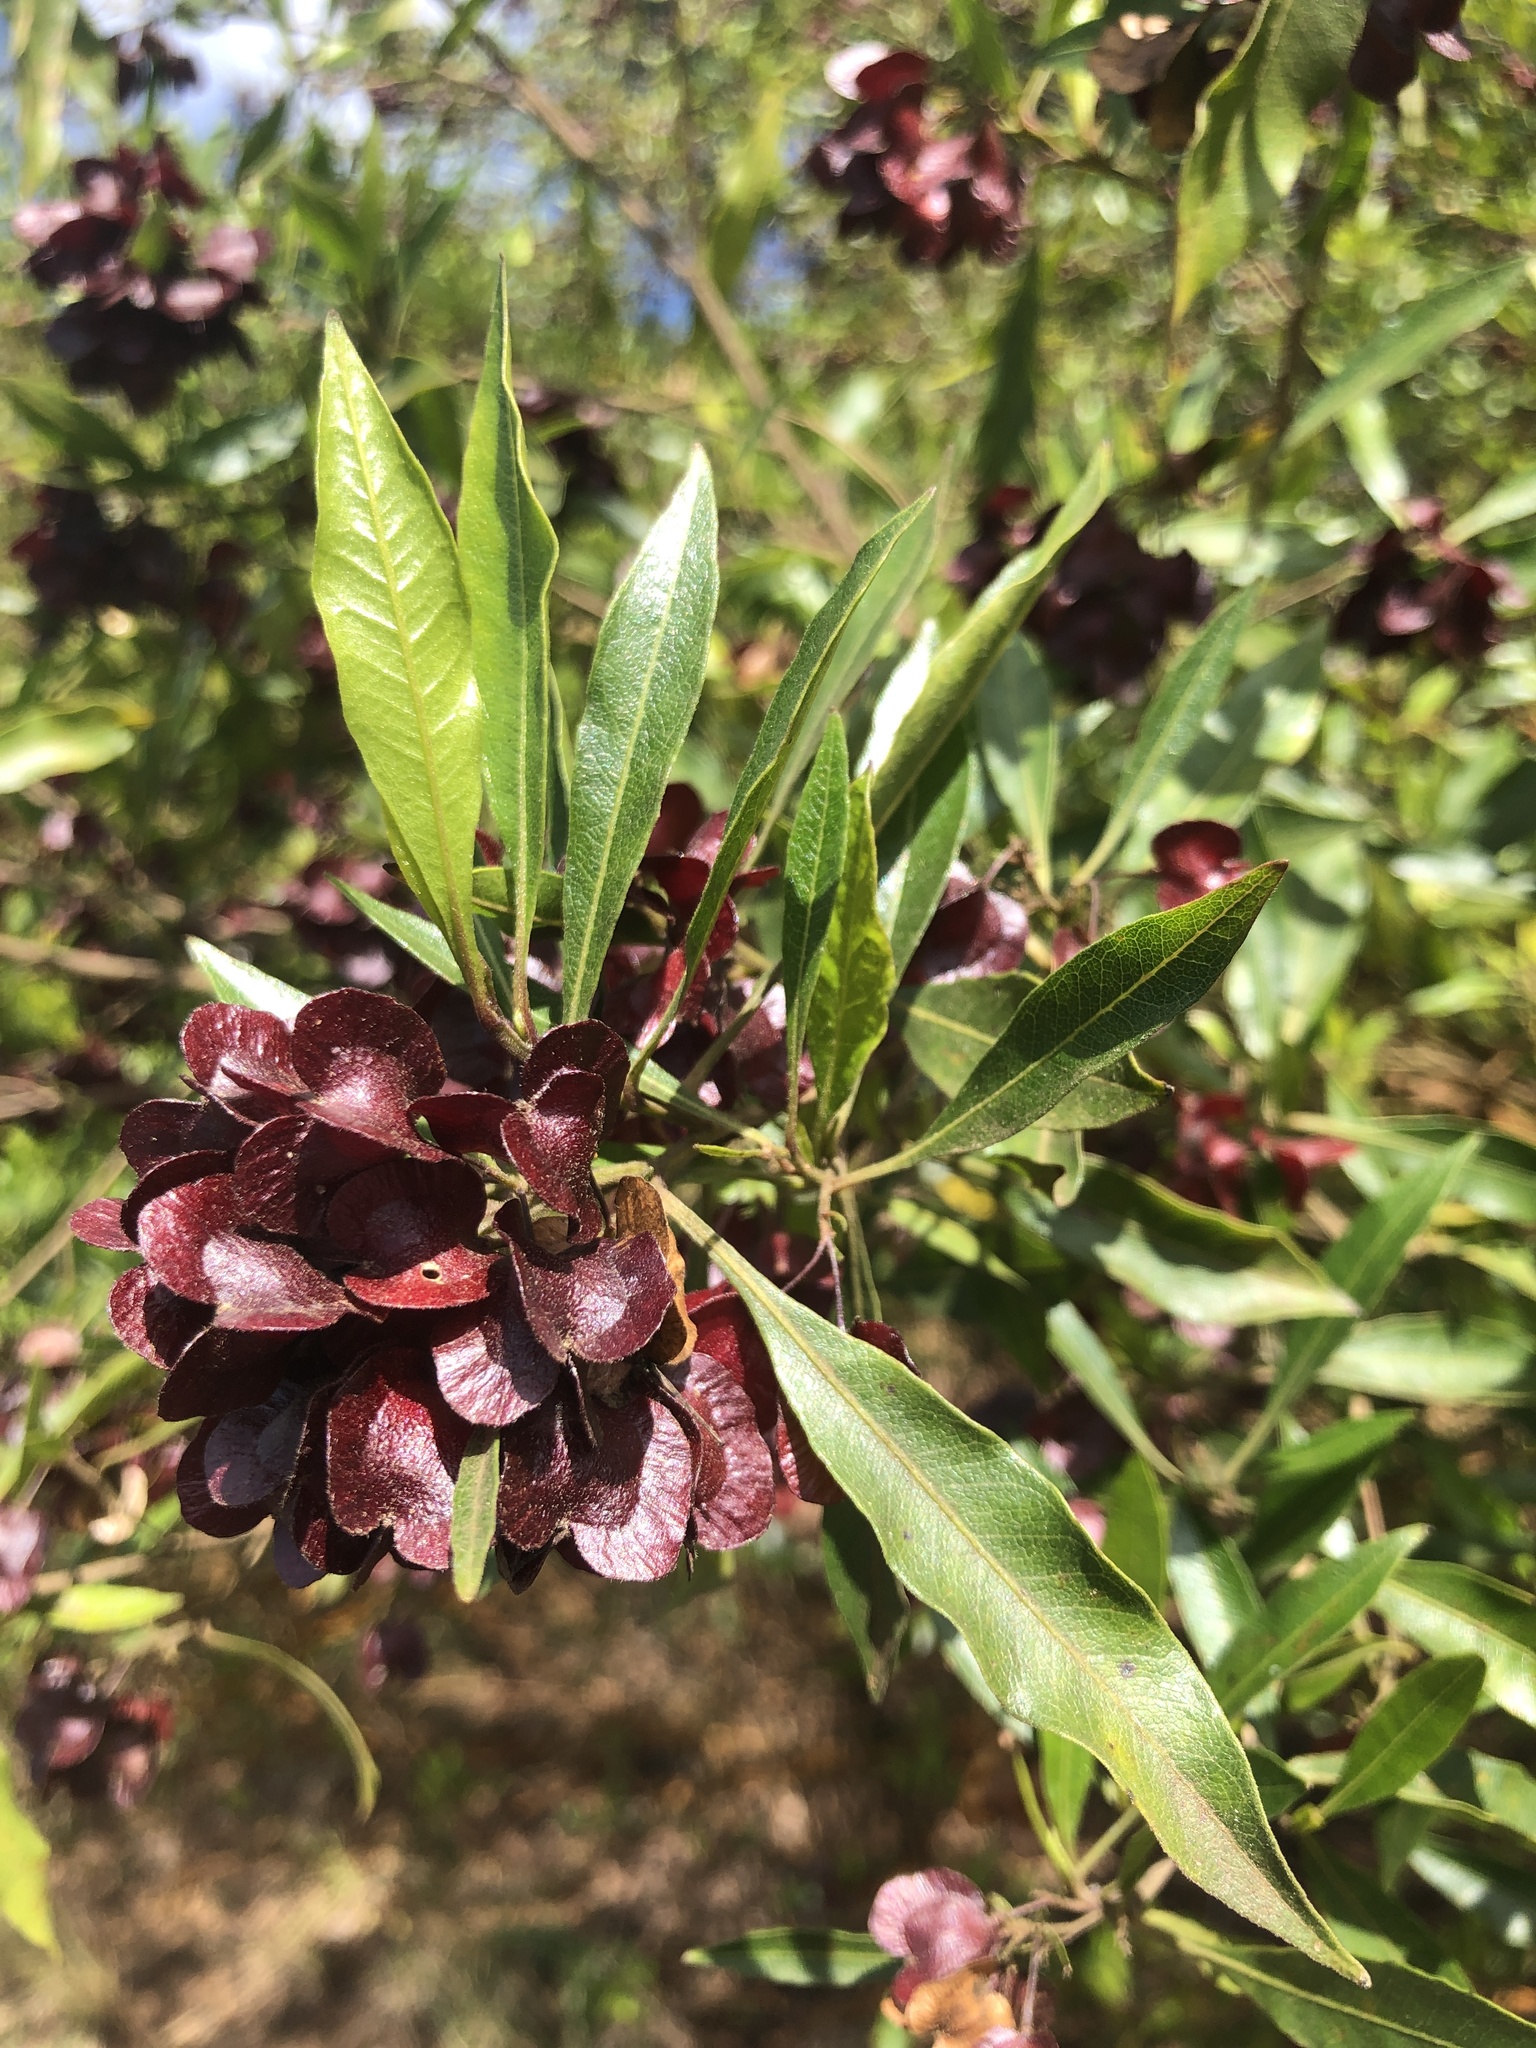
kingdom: Plantae
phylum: Tracheophyta
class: Magnoliopsida
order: Sapindales
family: Sapindaceae
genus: Dodonaea
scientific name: Dodonaea viscosa
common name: Hopbush
